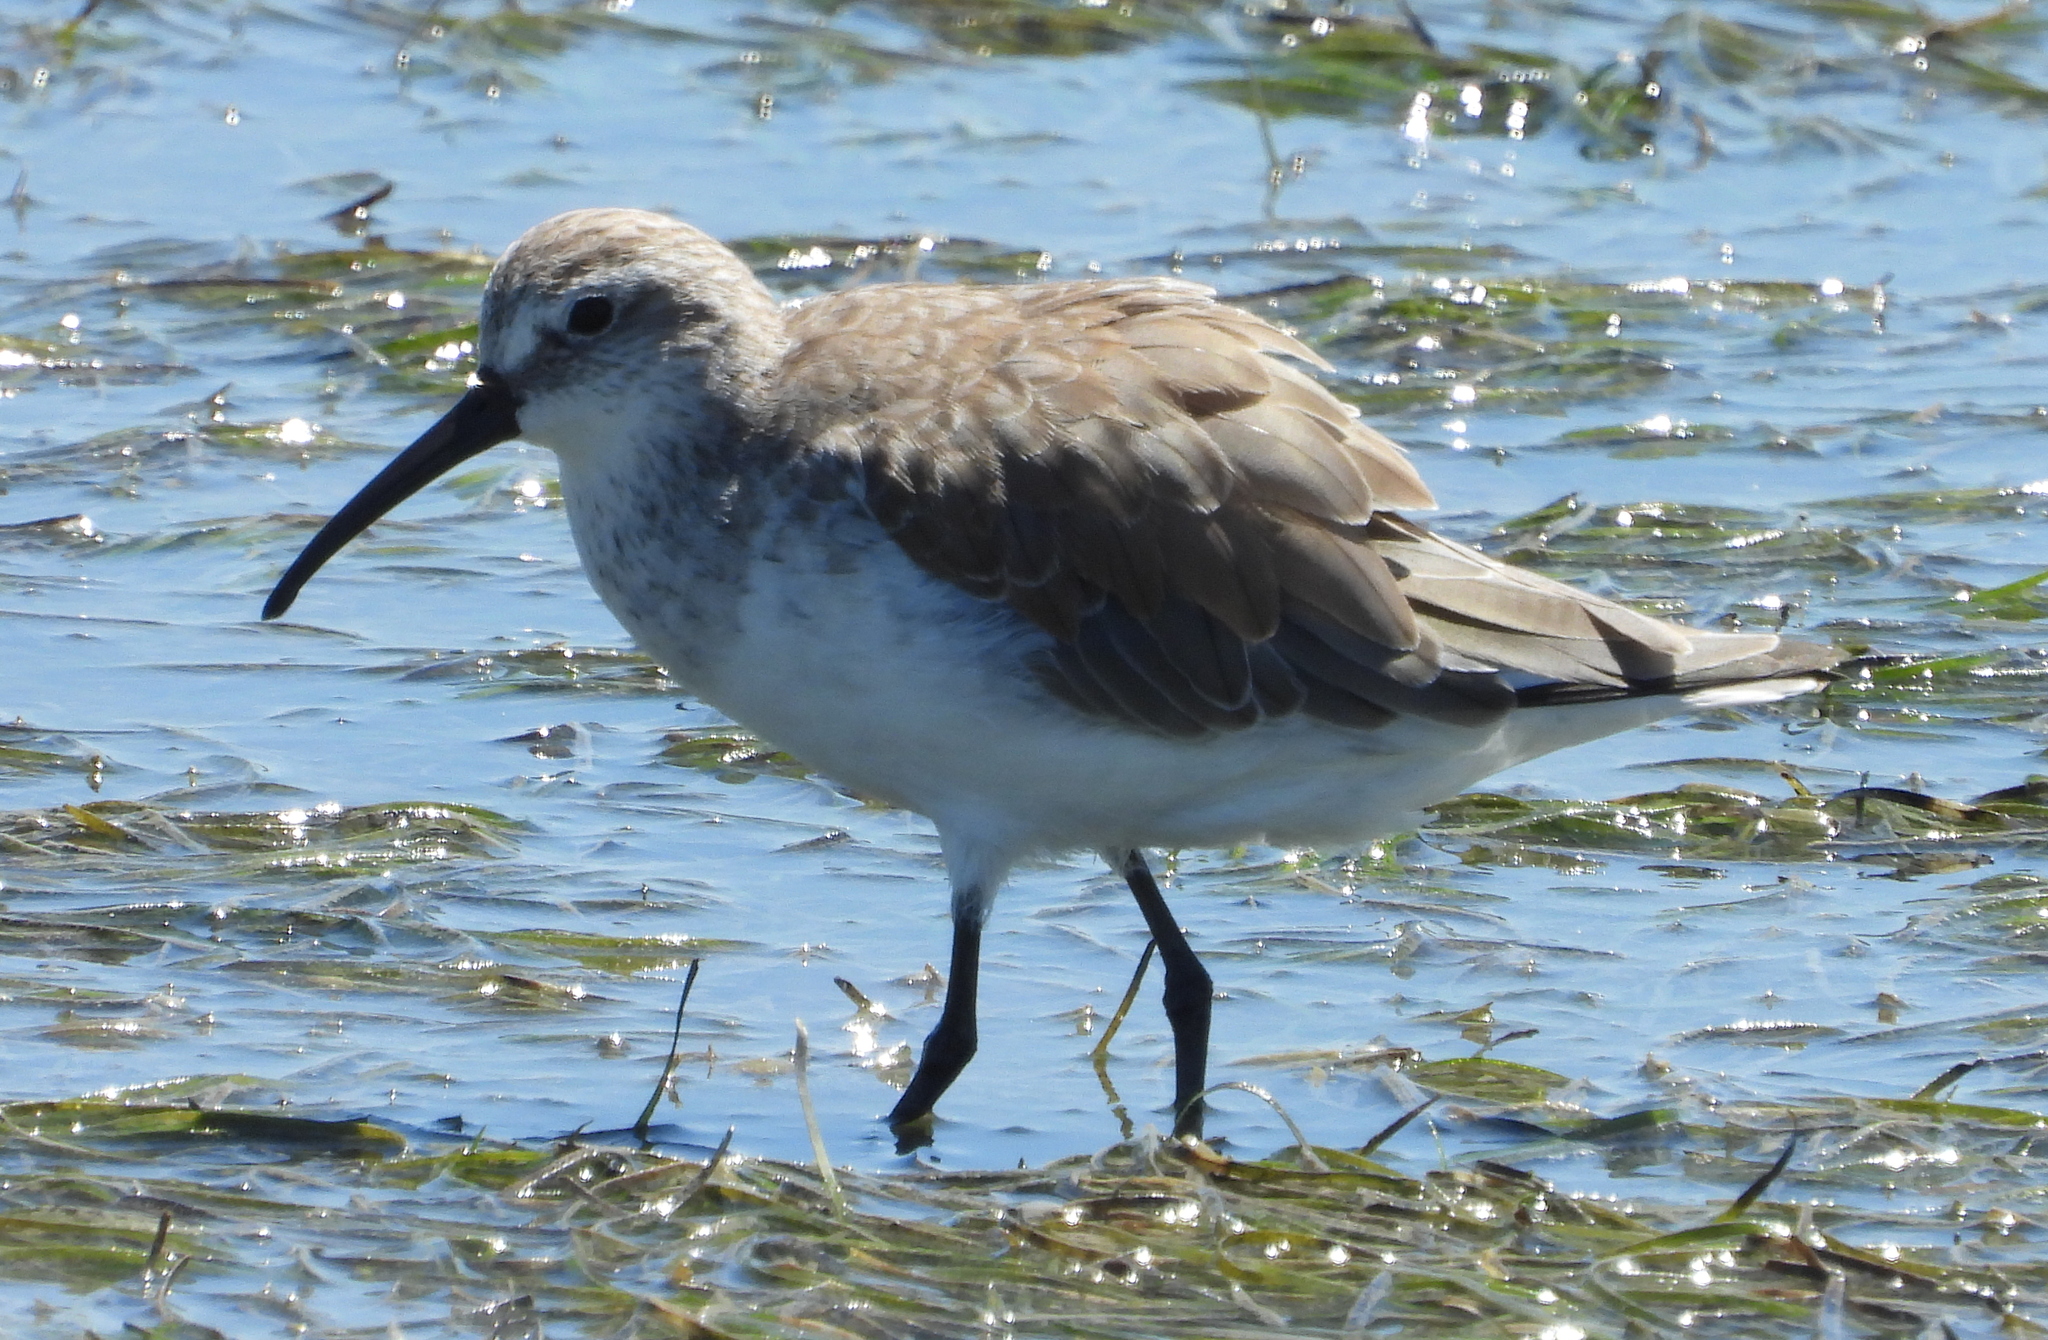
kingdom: Animalia
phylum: Chordata
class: Aves
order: Charadriiformes
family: Scolopacidae
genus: Calidris
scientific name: Calidris ferruginea
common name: Curlew sandpiper
